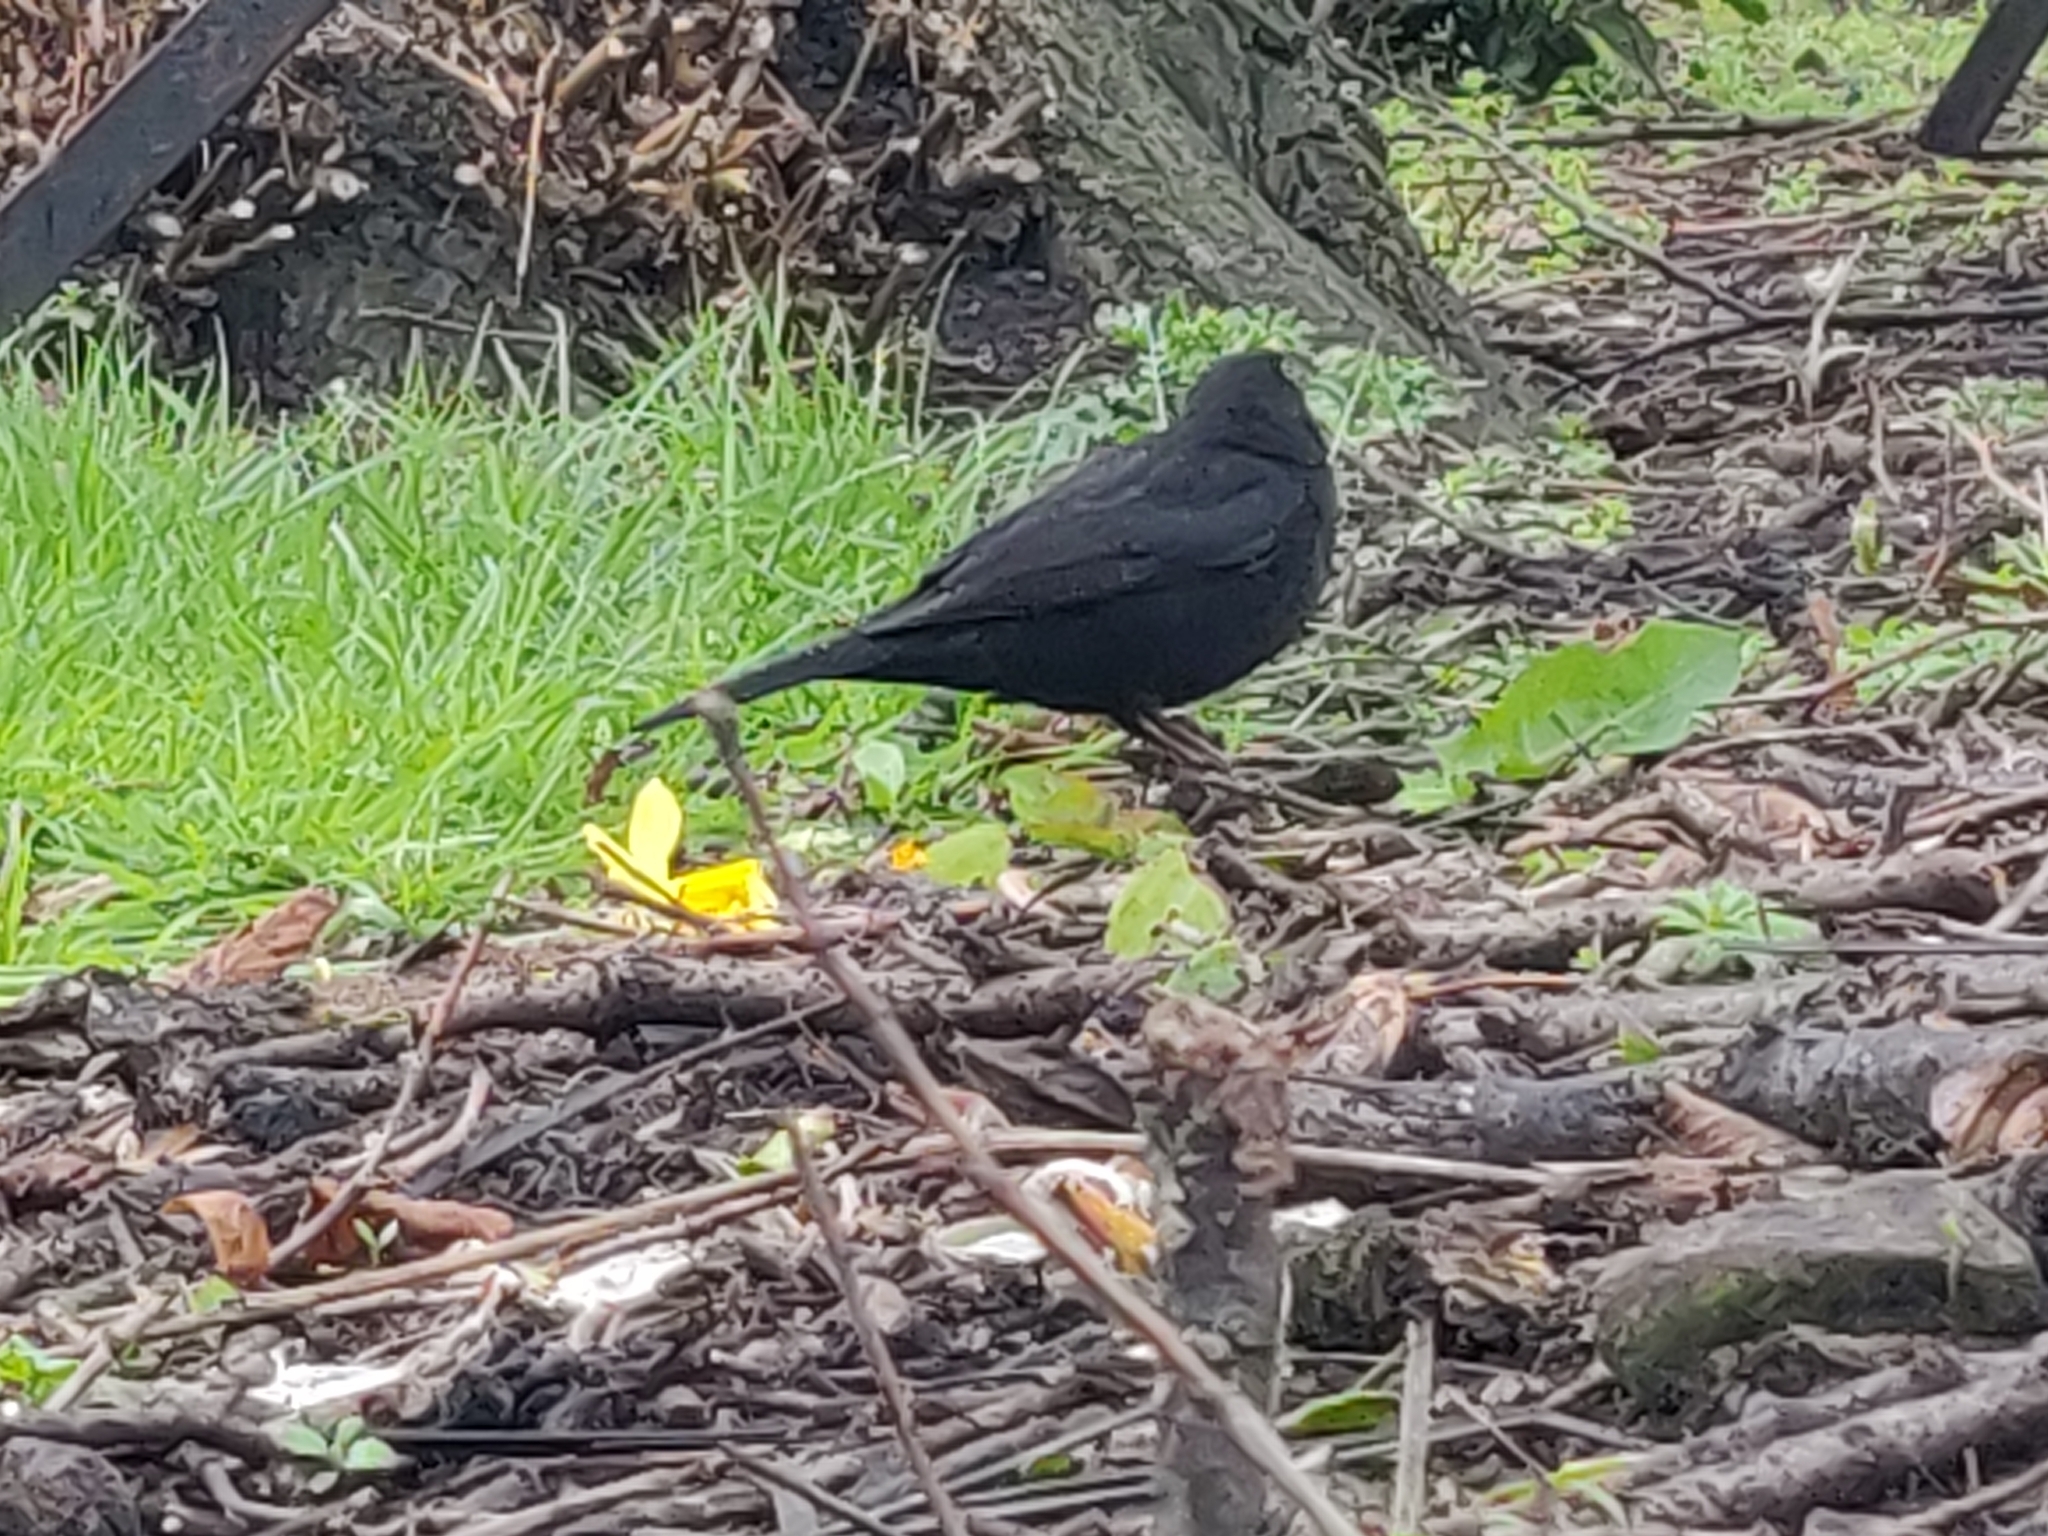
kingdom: Animalia
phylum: Chordata
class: Aves
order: Passeriformes
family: Turdidae
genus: Turdus
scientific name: Turdus merula
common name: Common blackbird
